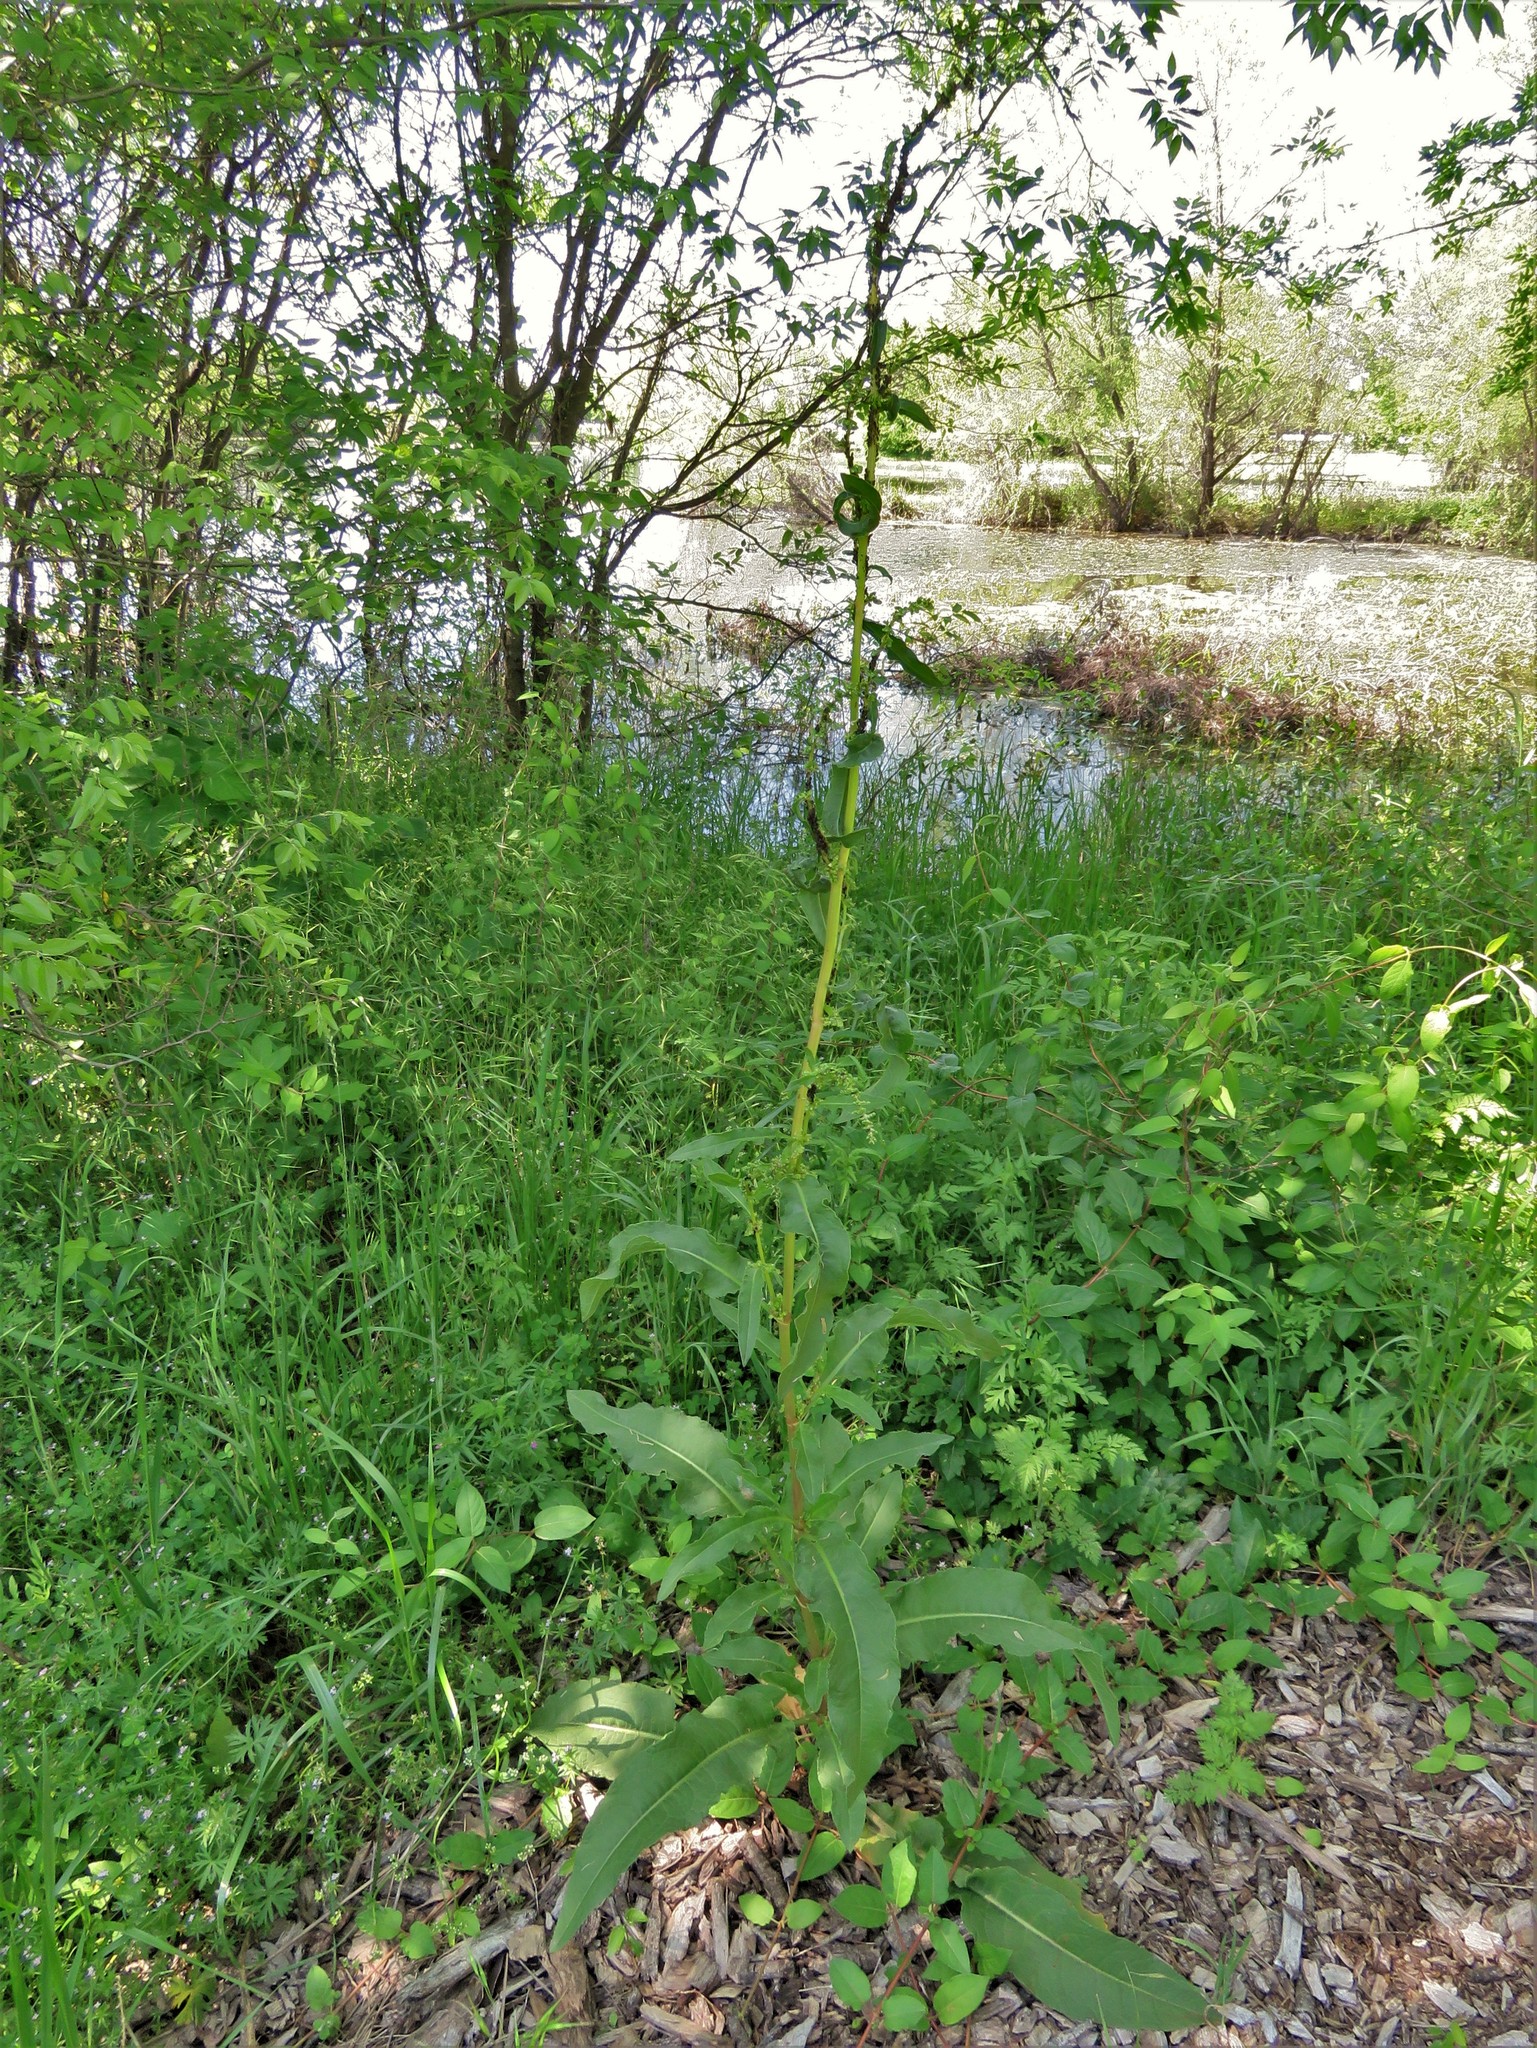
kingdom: Plantae
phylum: Tracheophyta
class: Magnoliopsida
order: Caryophyllales
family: Polygonaceae
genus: Rumex
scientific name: Rumex crispus
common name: Curled dock
